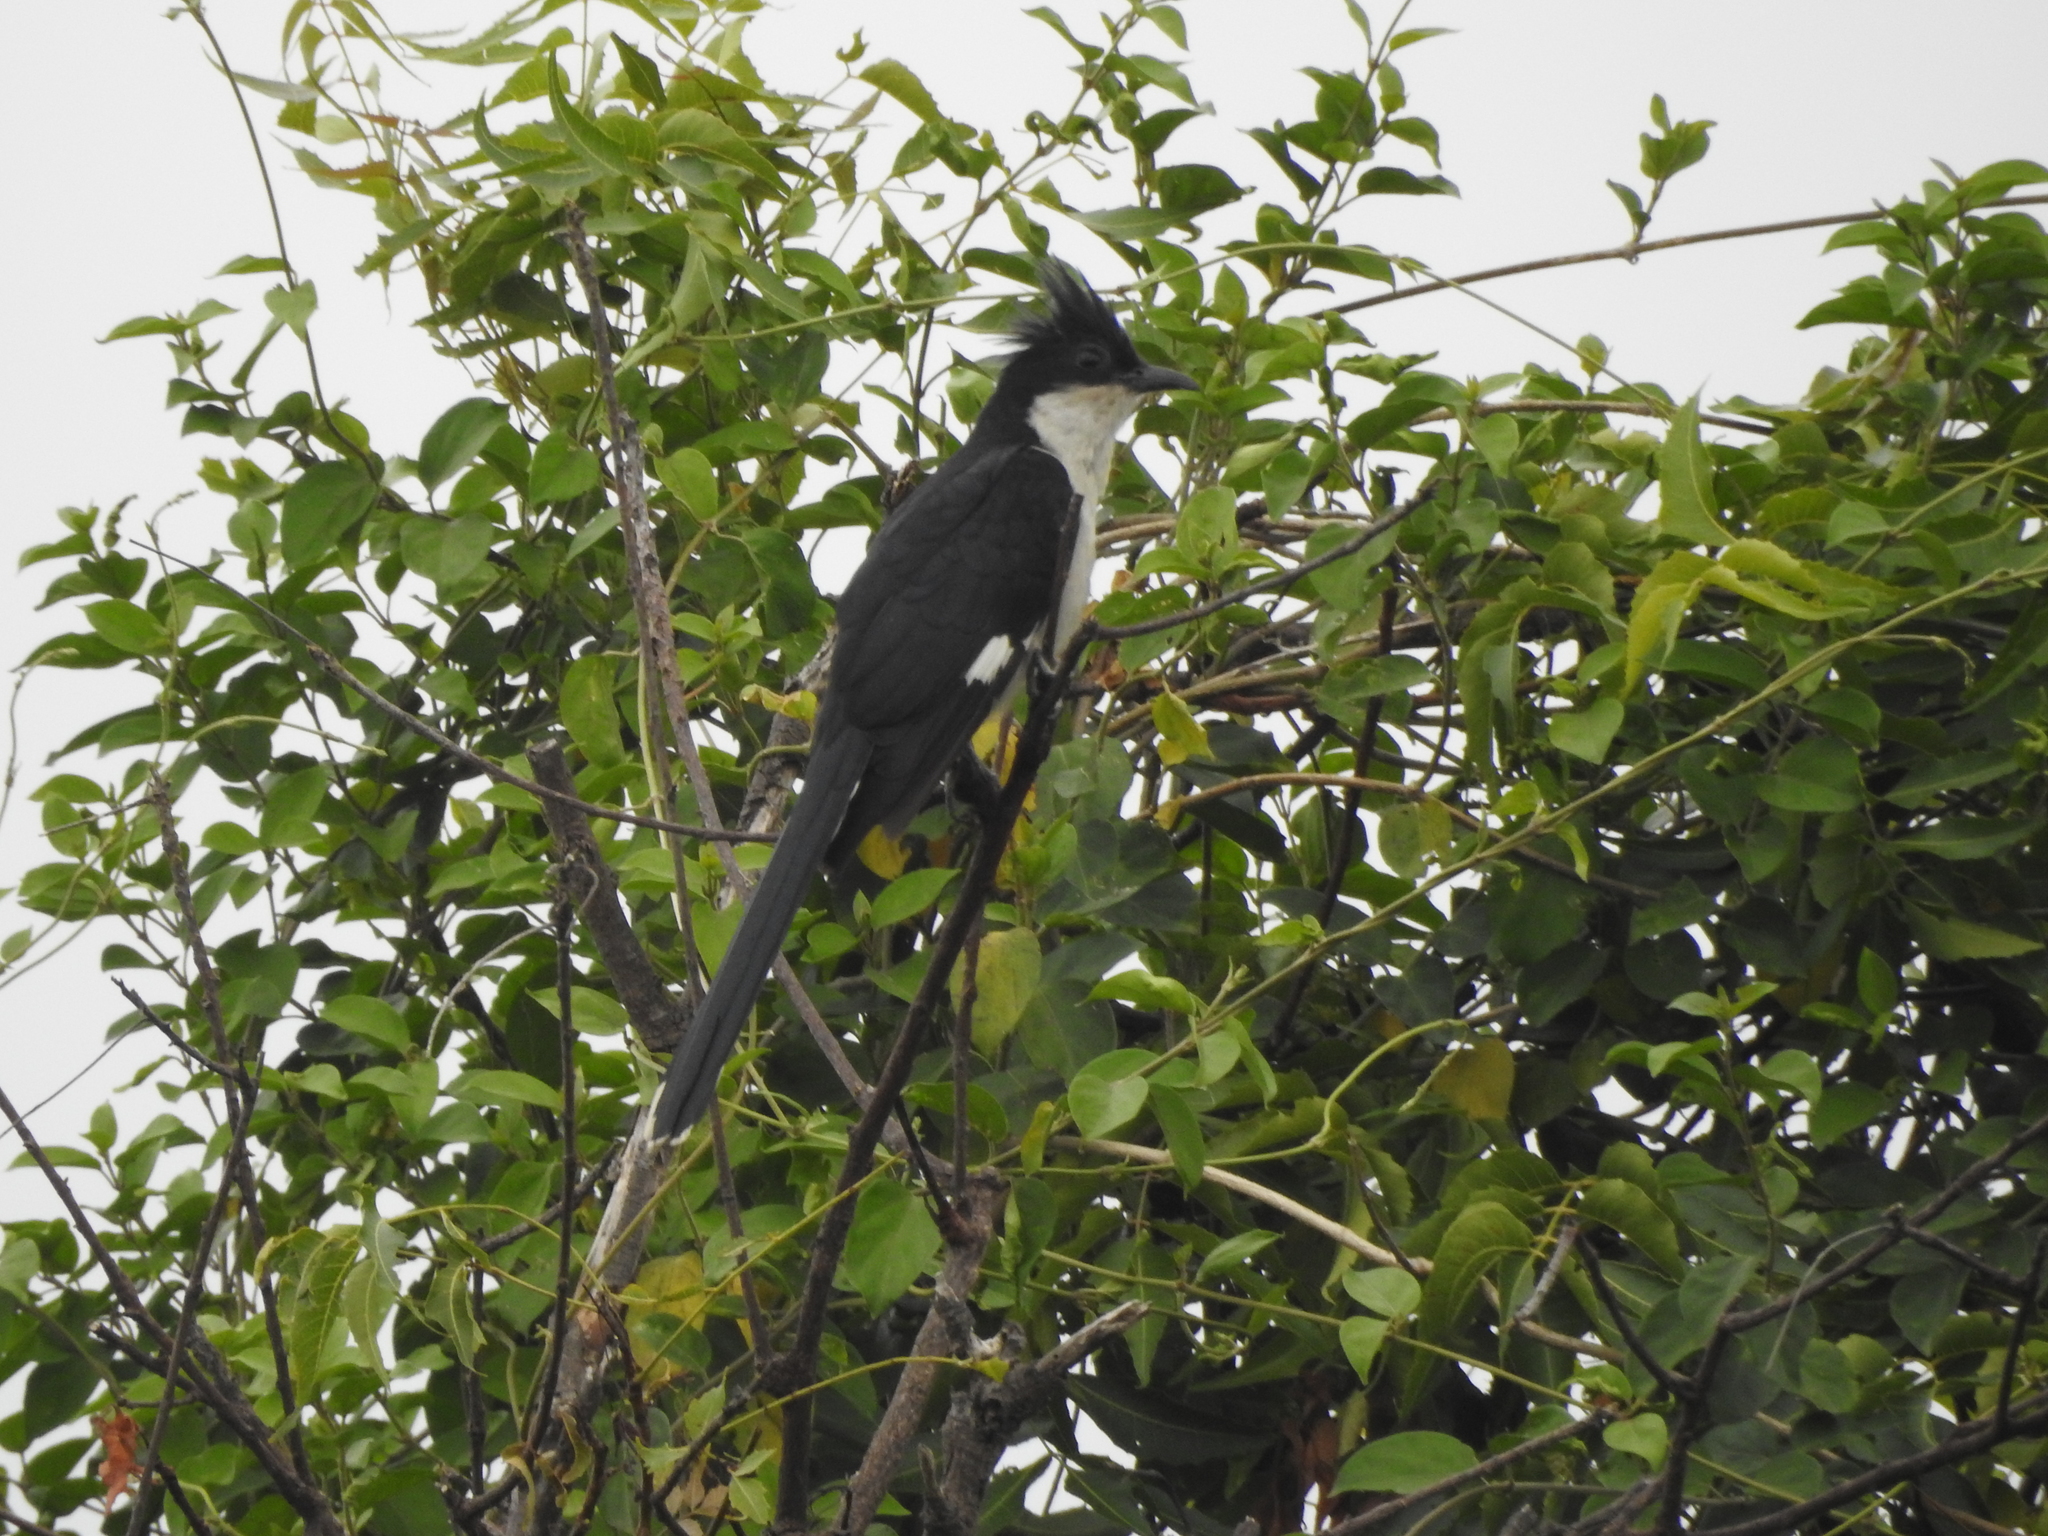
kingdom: Animalia
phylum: Chordata
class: Aves
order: Cuculiformes
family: Cuculidae
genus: Clamator
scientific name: Clamator jacobinus
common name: Jacobin cuckoo
